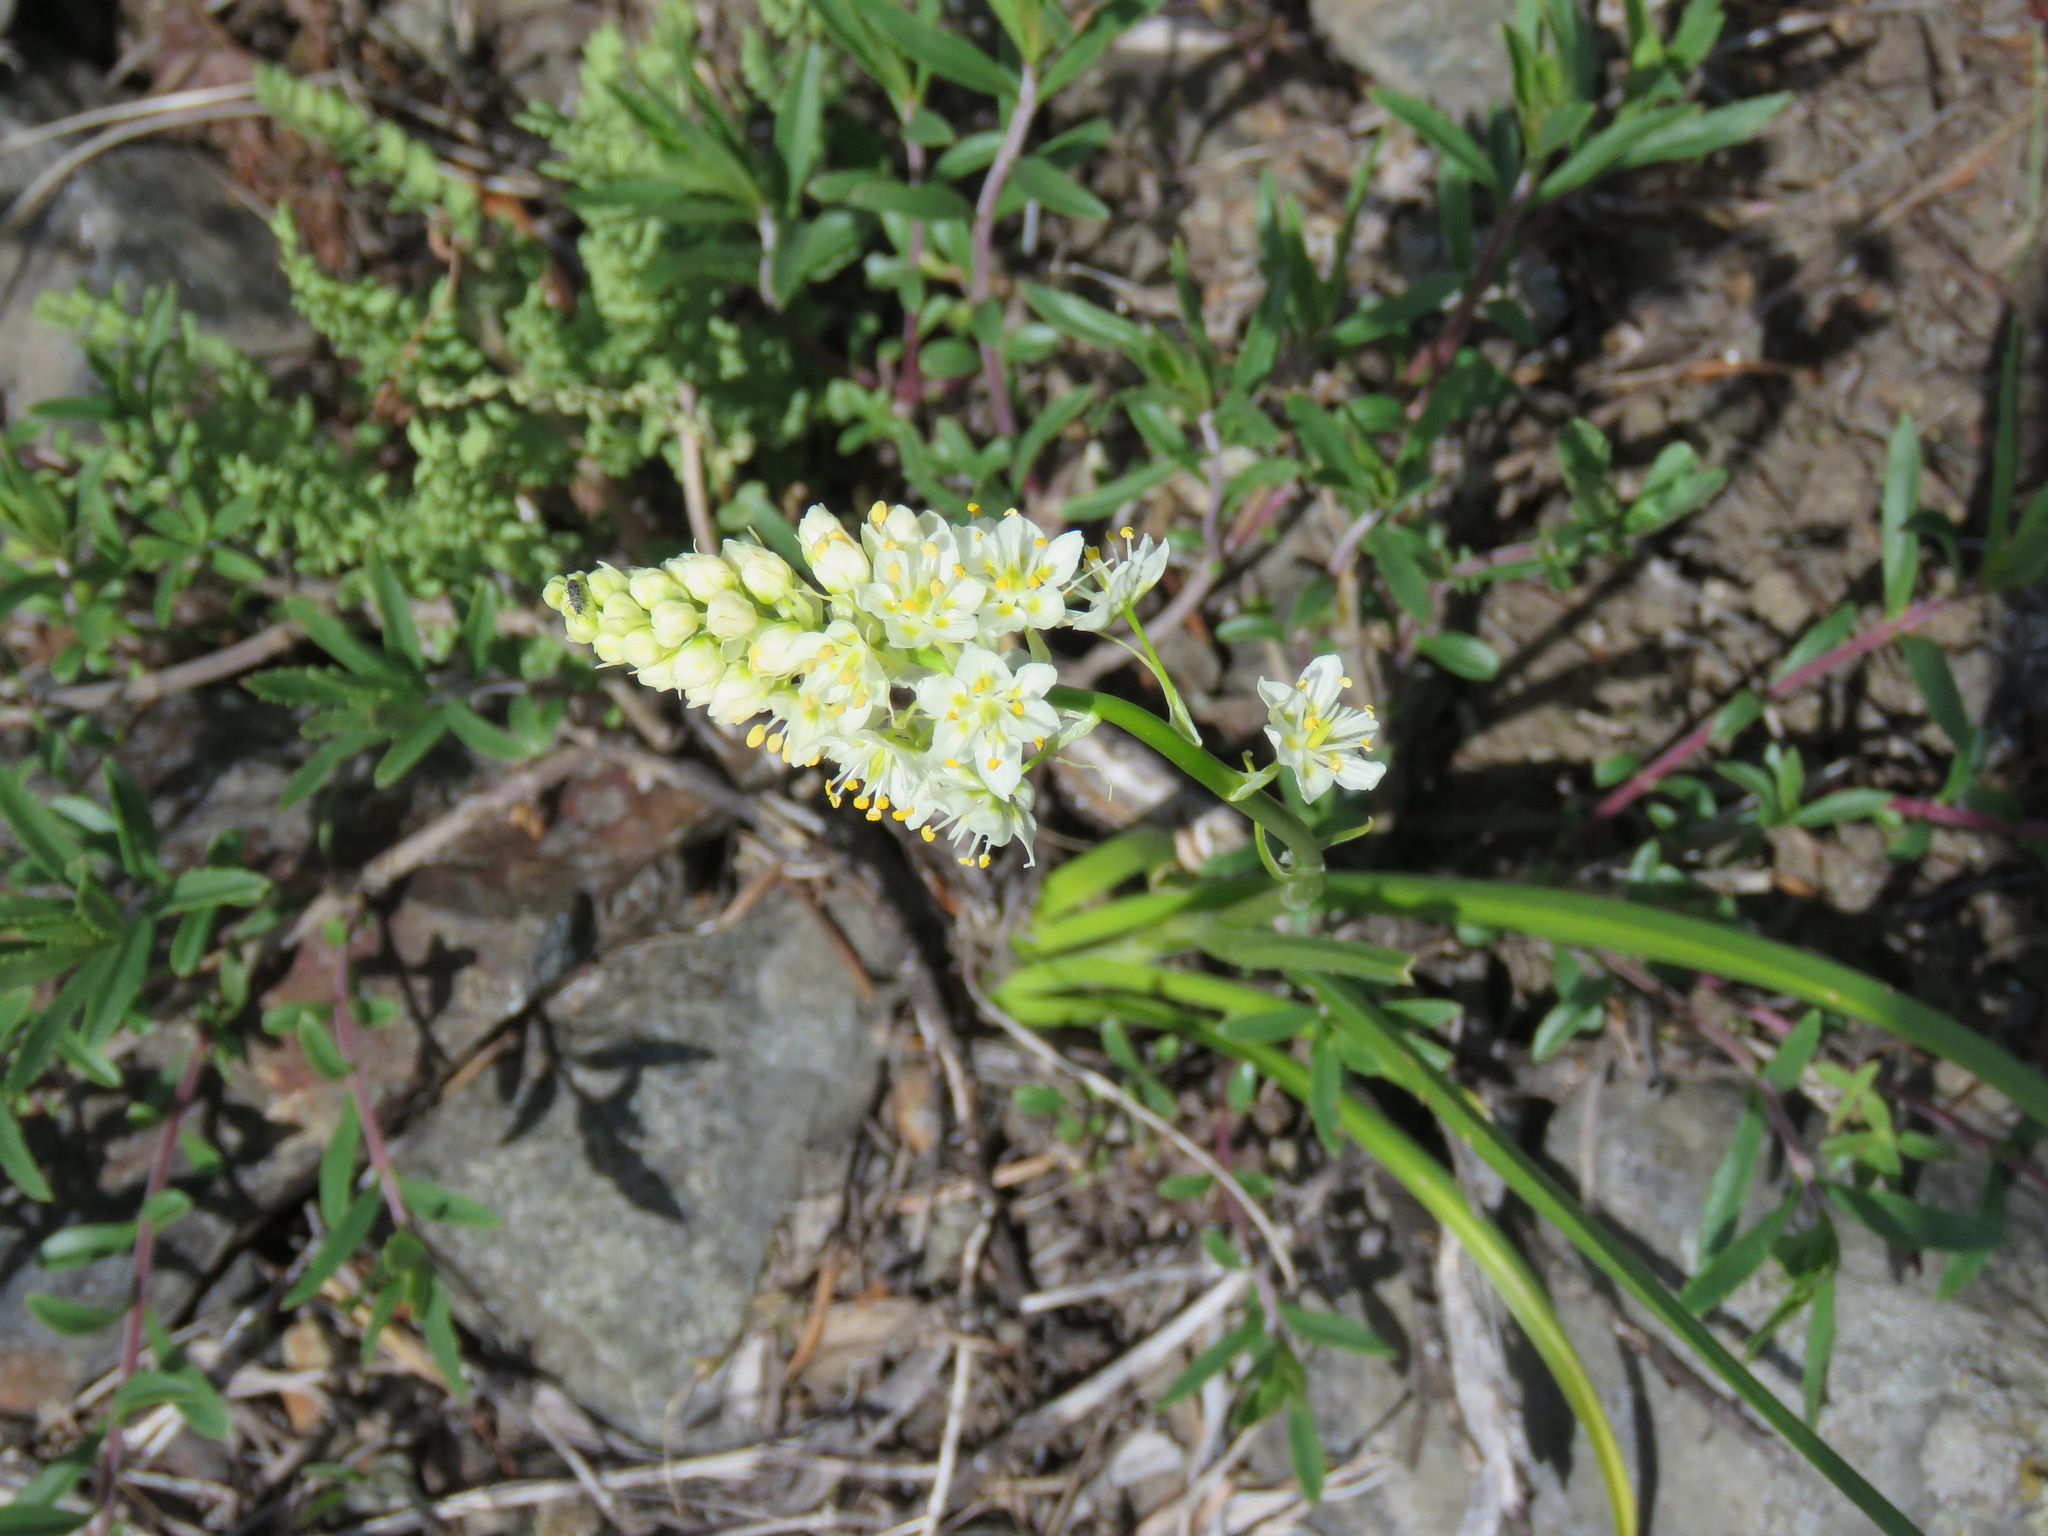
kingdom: Plantae
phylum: Tracheophyta
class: Liliopsida
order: Liliales
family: Melanthiaceae
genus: Toxicoscordion
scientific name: Toxicoscordion venenosum
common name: Meadow death camas
